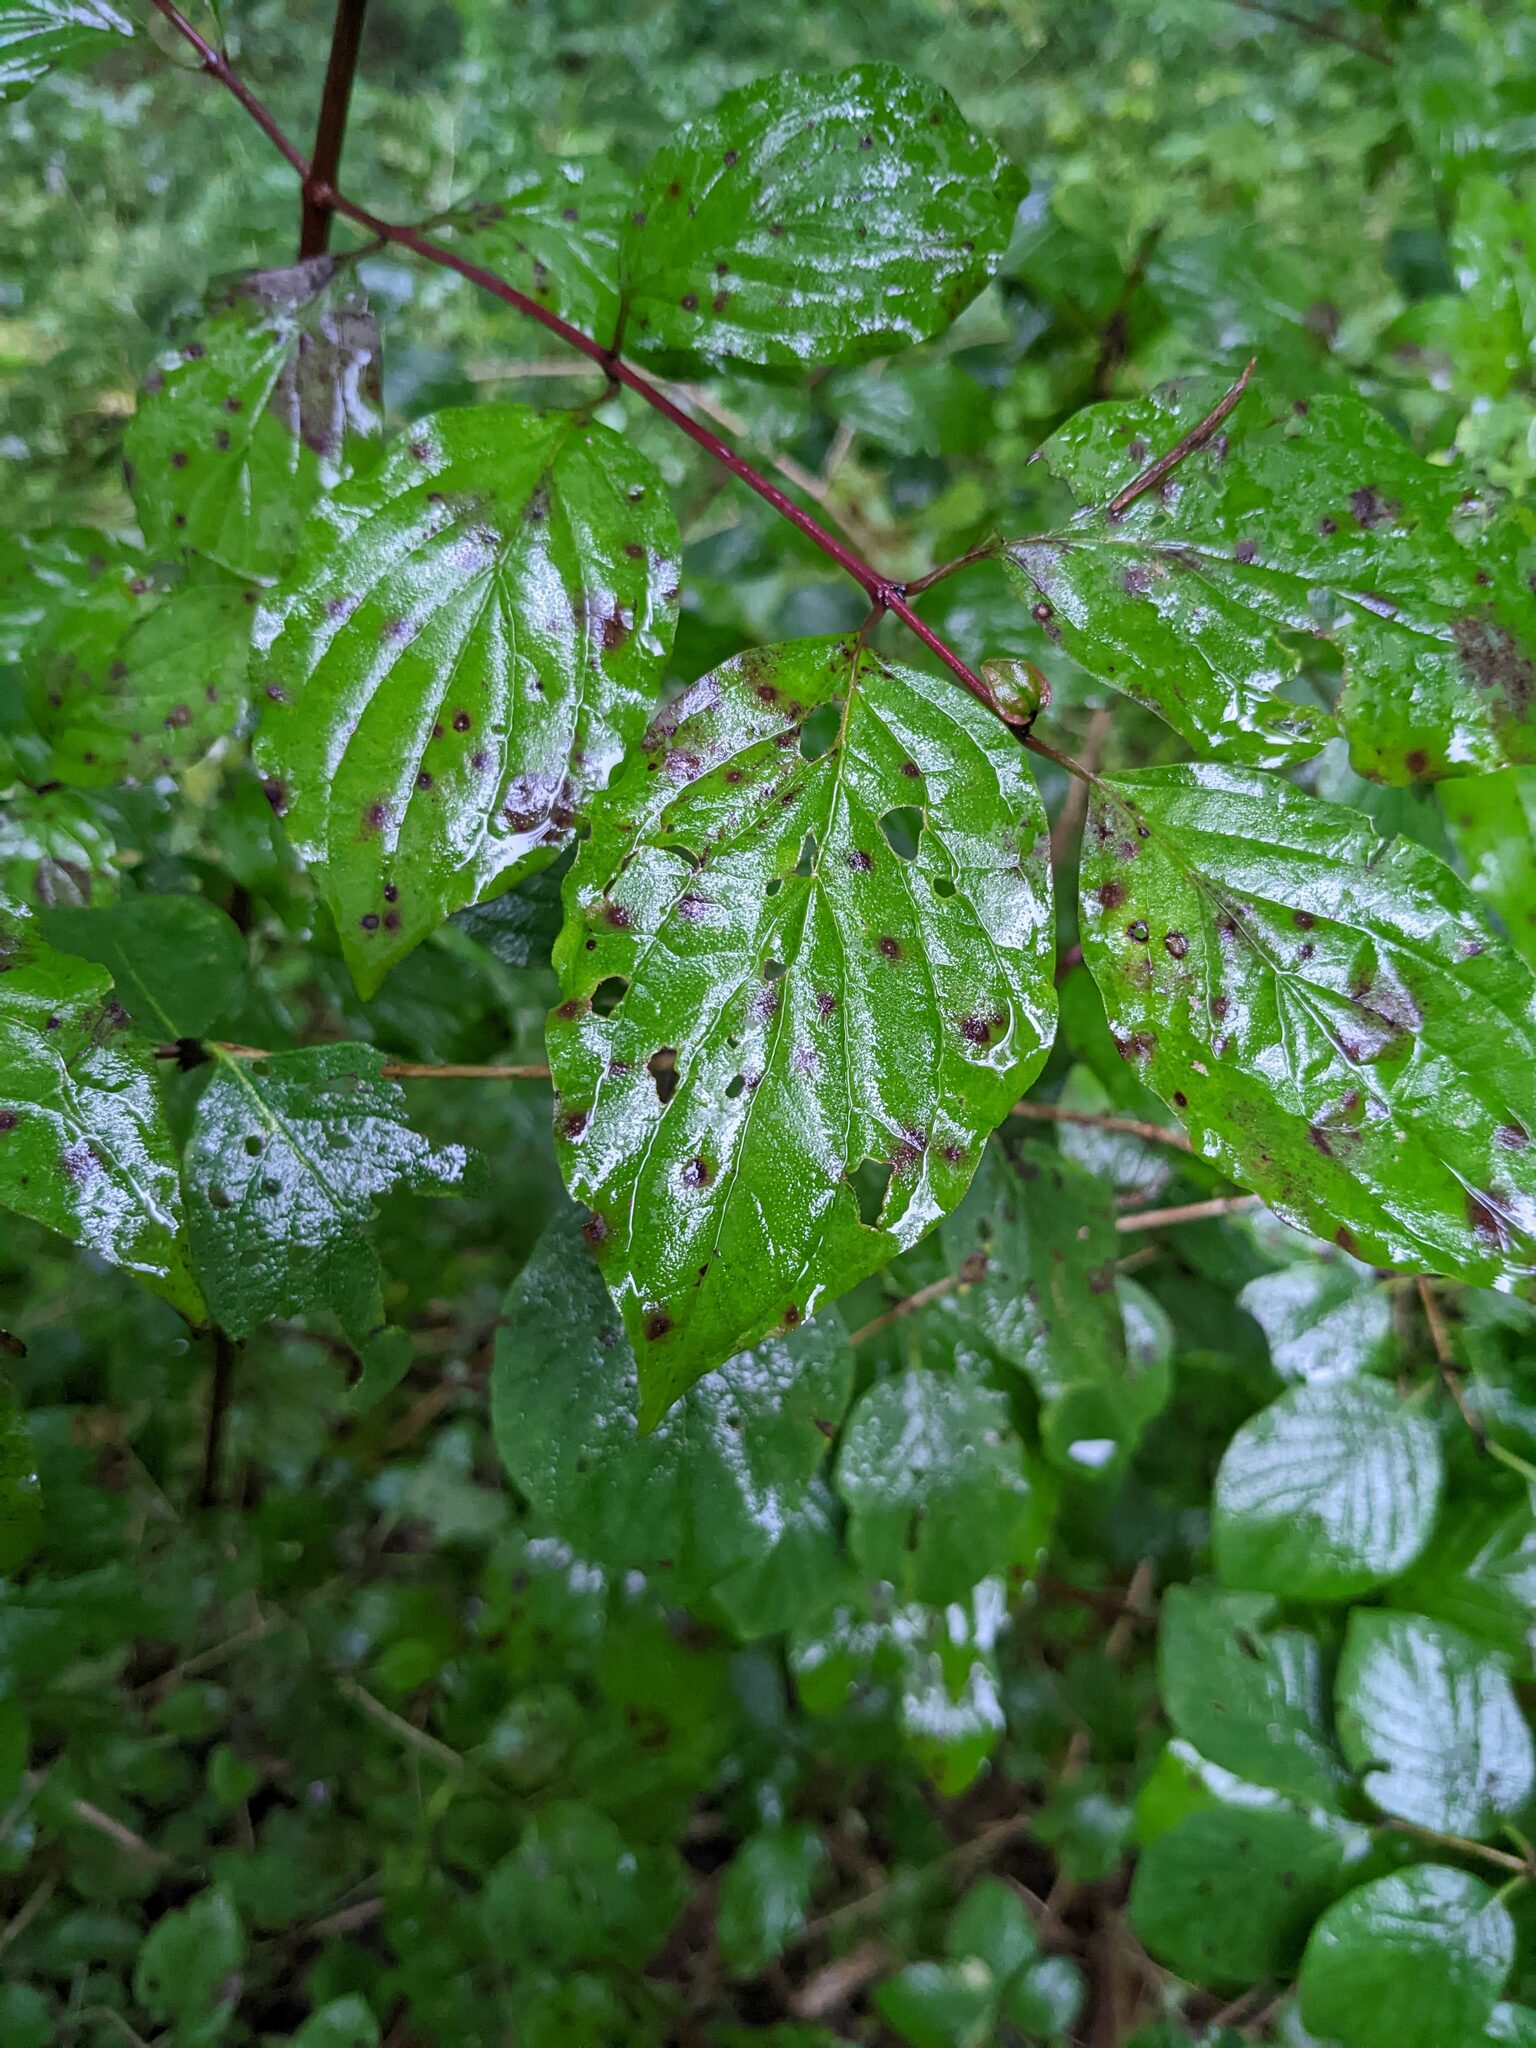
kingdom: Plantae
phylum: Tracheophyta
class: Magnoliopsida
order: Cornales
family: Cornaceae
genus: Cornus
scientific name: Cornus sanguinea
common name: Dogwood
